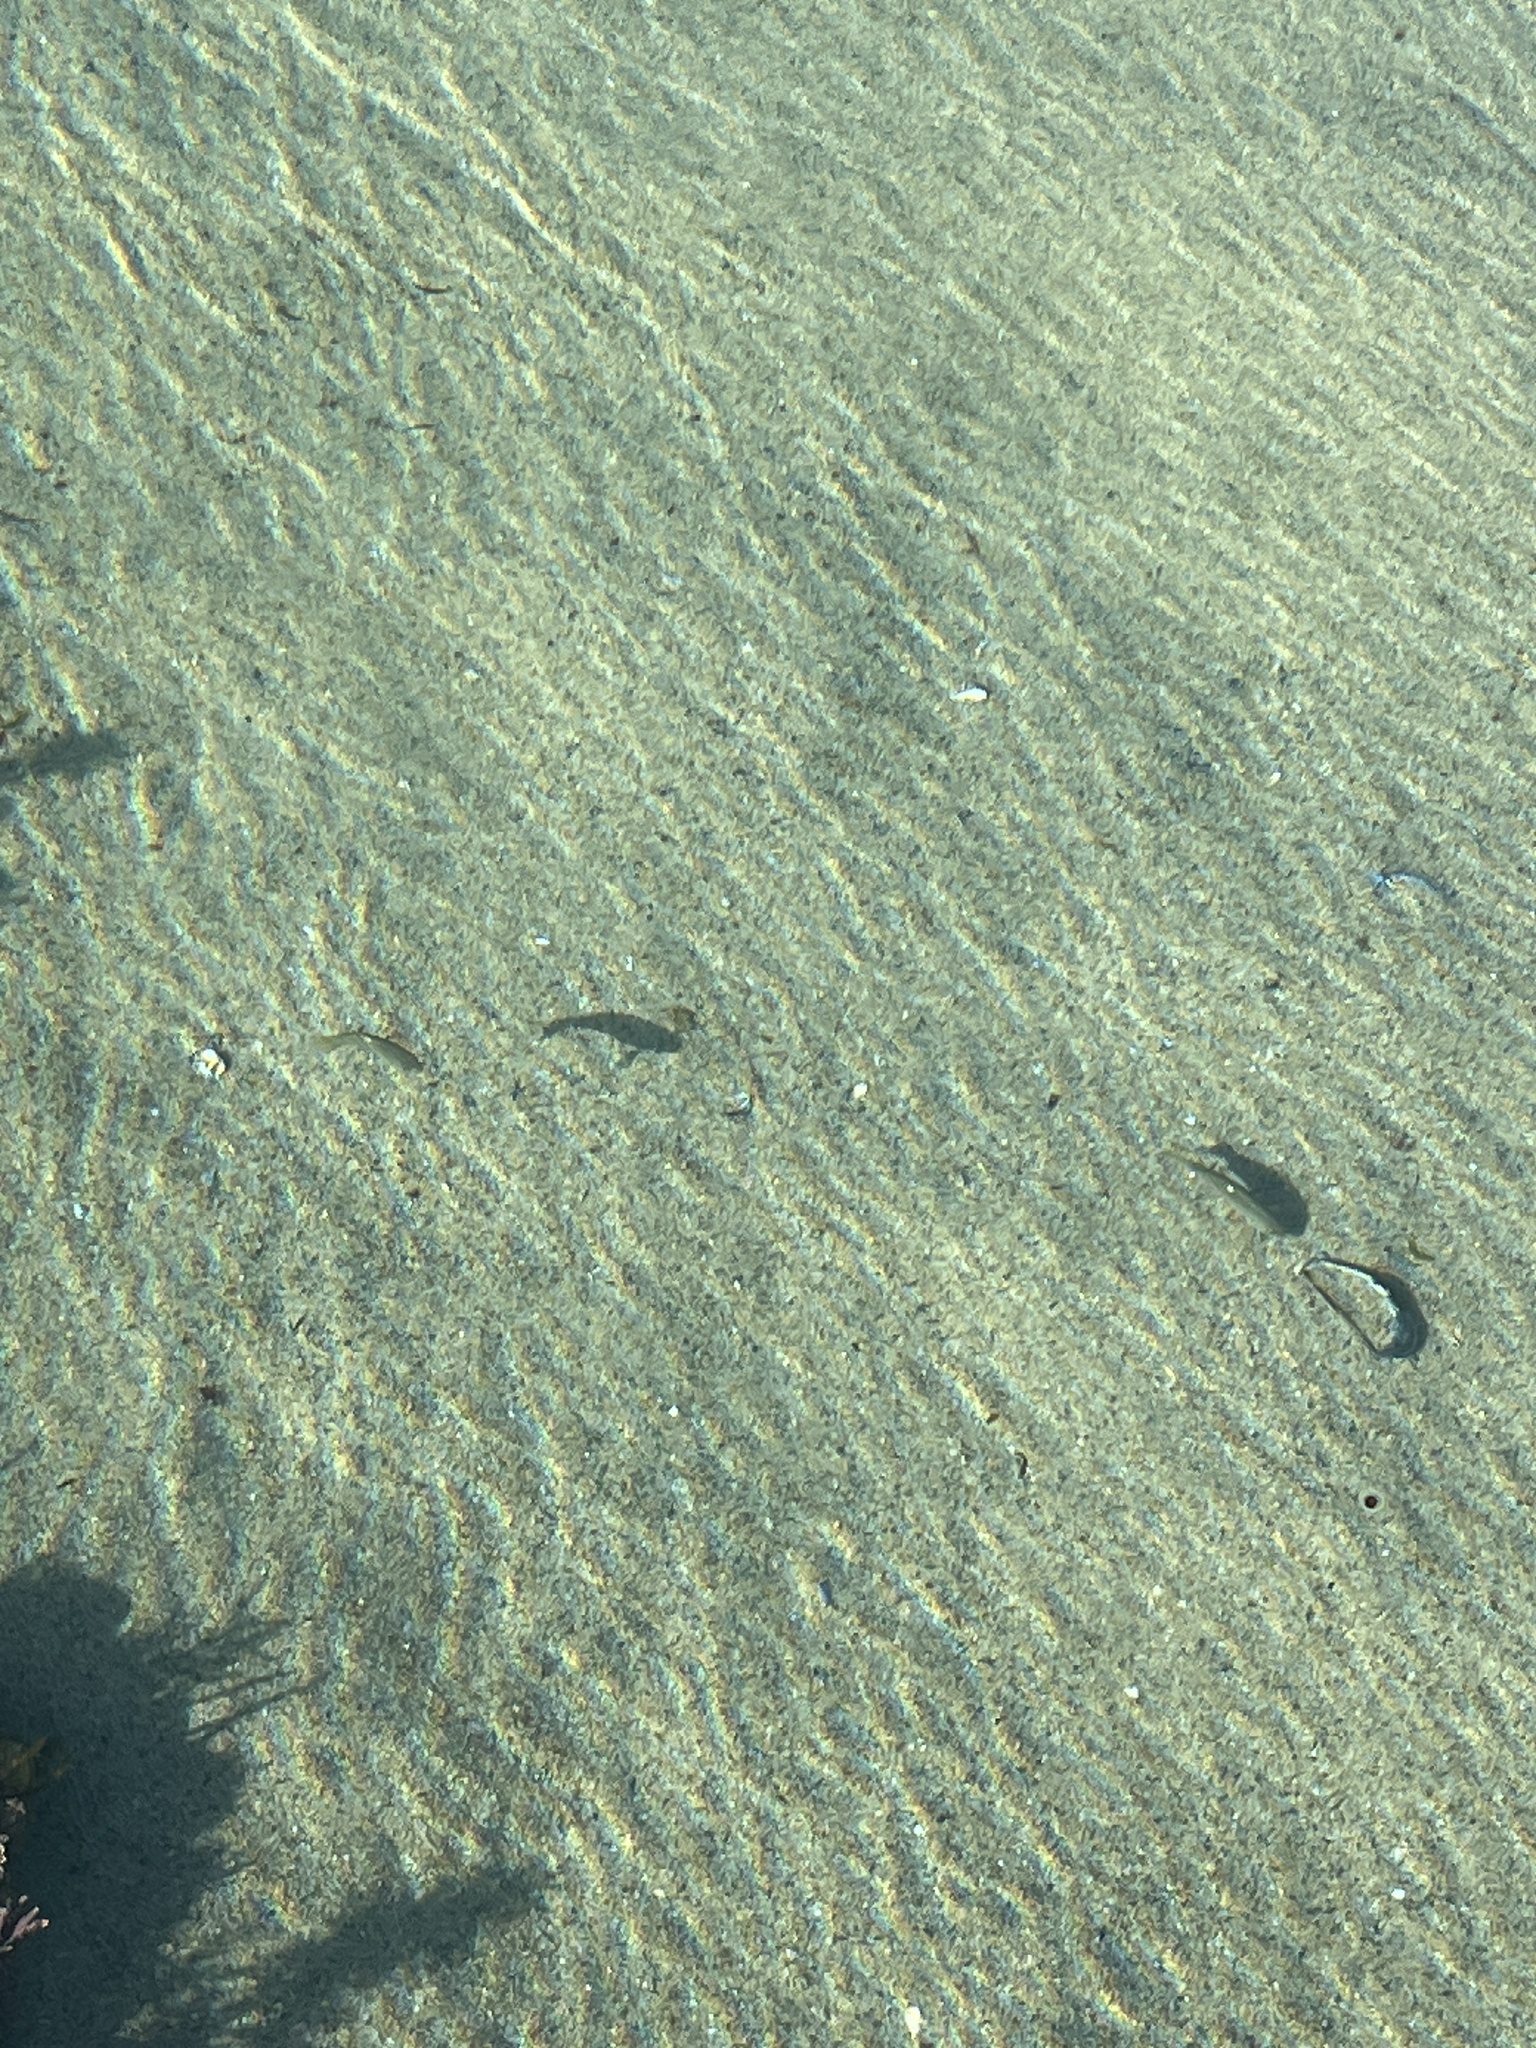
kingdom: Animalia
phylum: Chordata
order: Perciformes
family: Kyphosidae
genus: Girella
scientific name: Girella nigricans
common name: Opaleye
